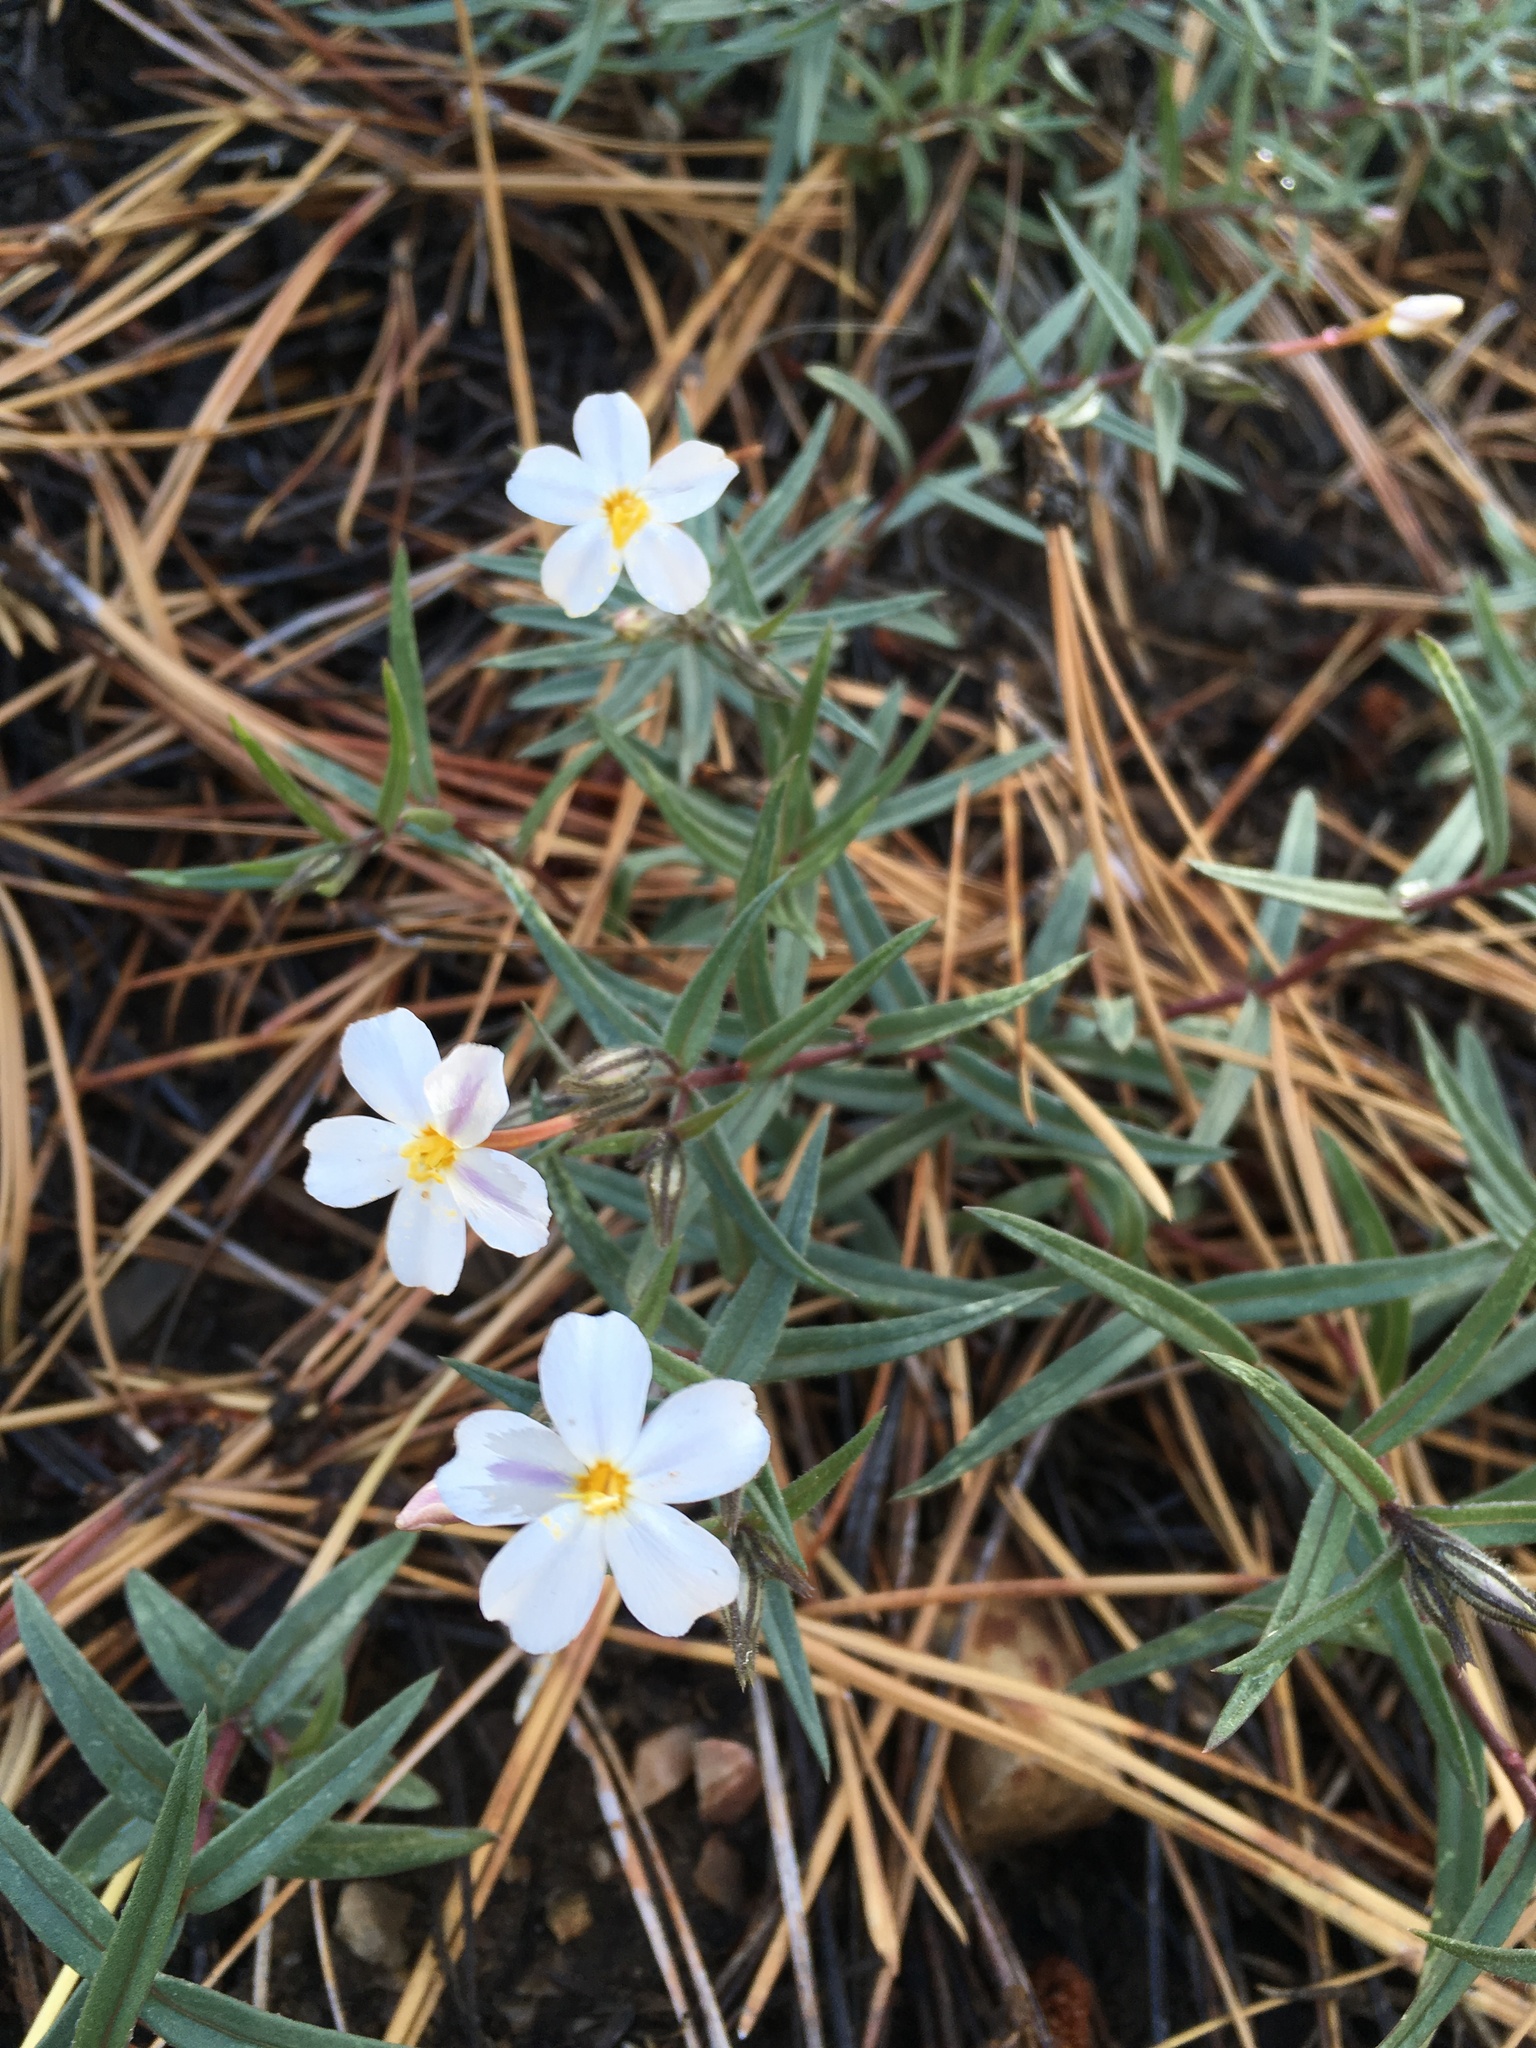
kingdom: Plantae
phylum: Tracheophyta
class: Magnoliopsida
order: Ericales
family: Polemoniaceae
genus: Phlox
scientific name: Phlox dolichantha
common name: Bear valley phlox
